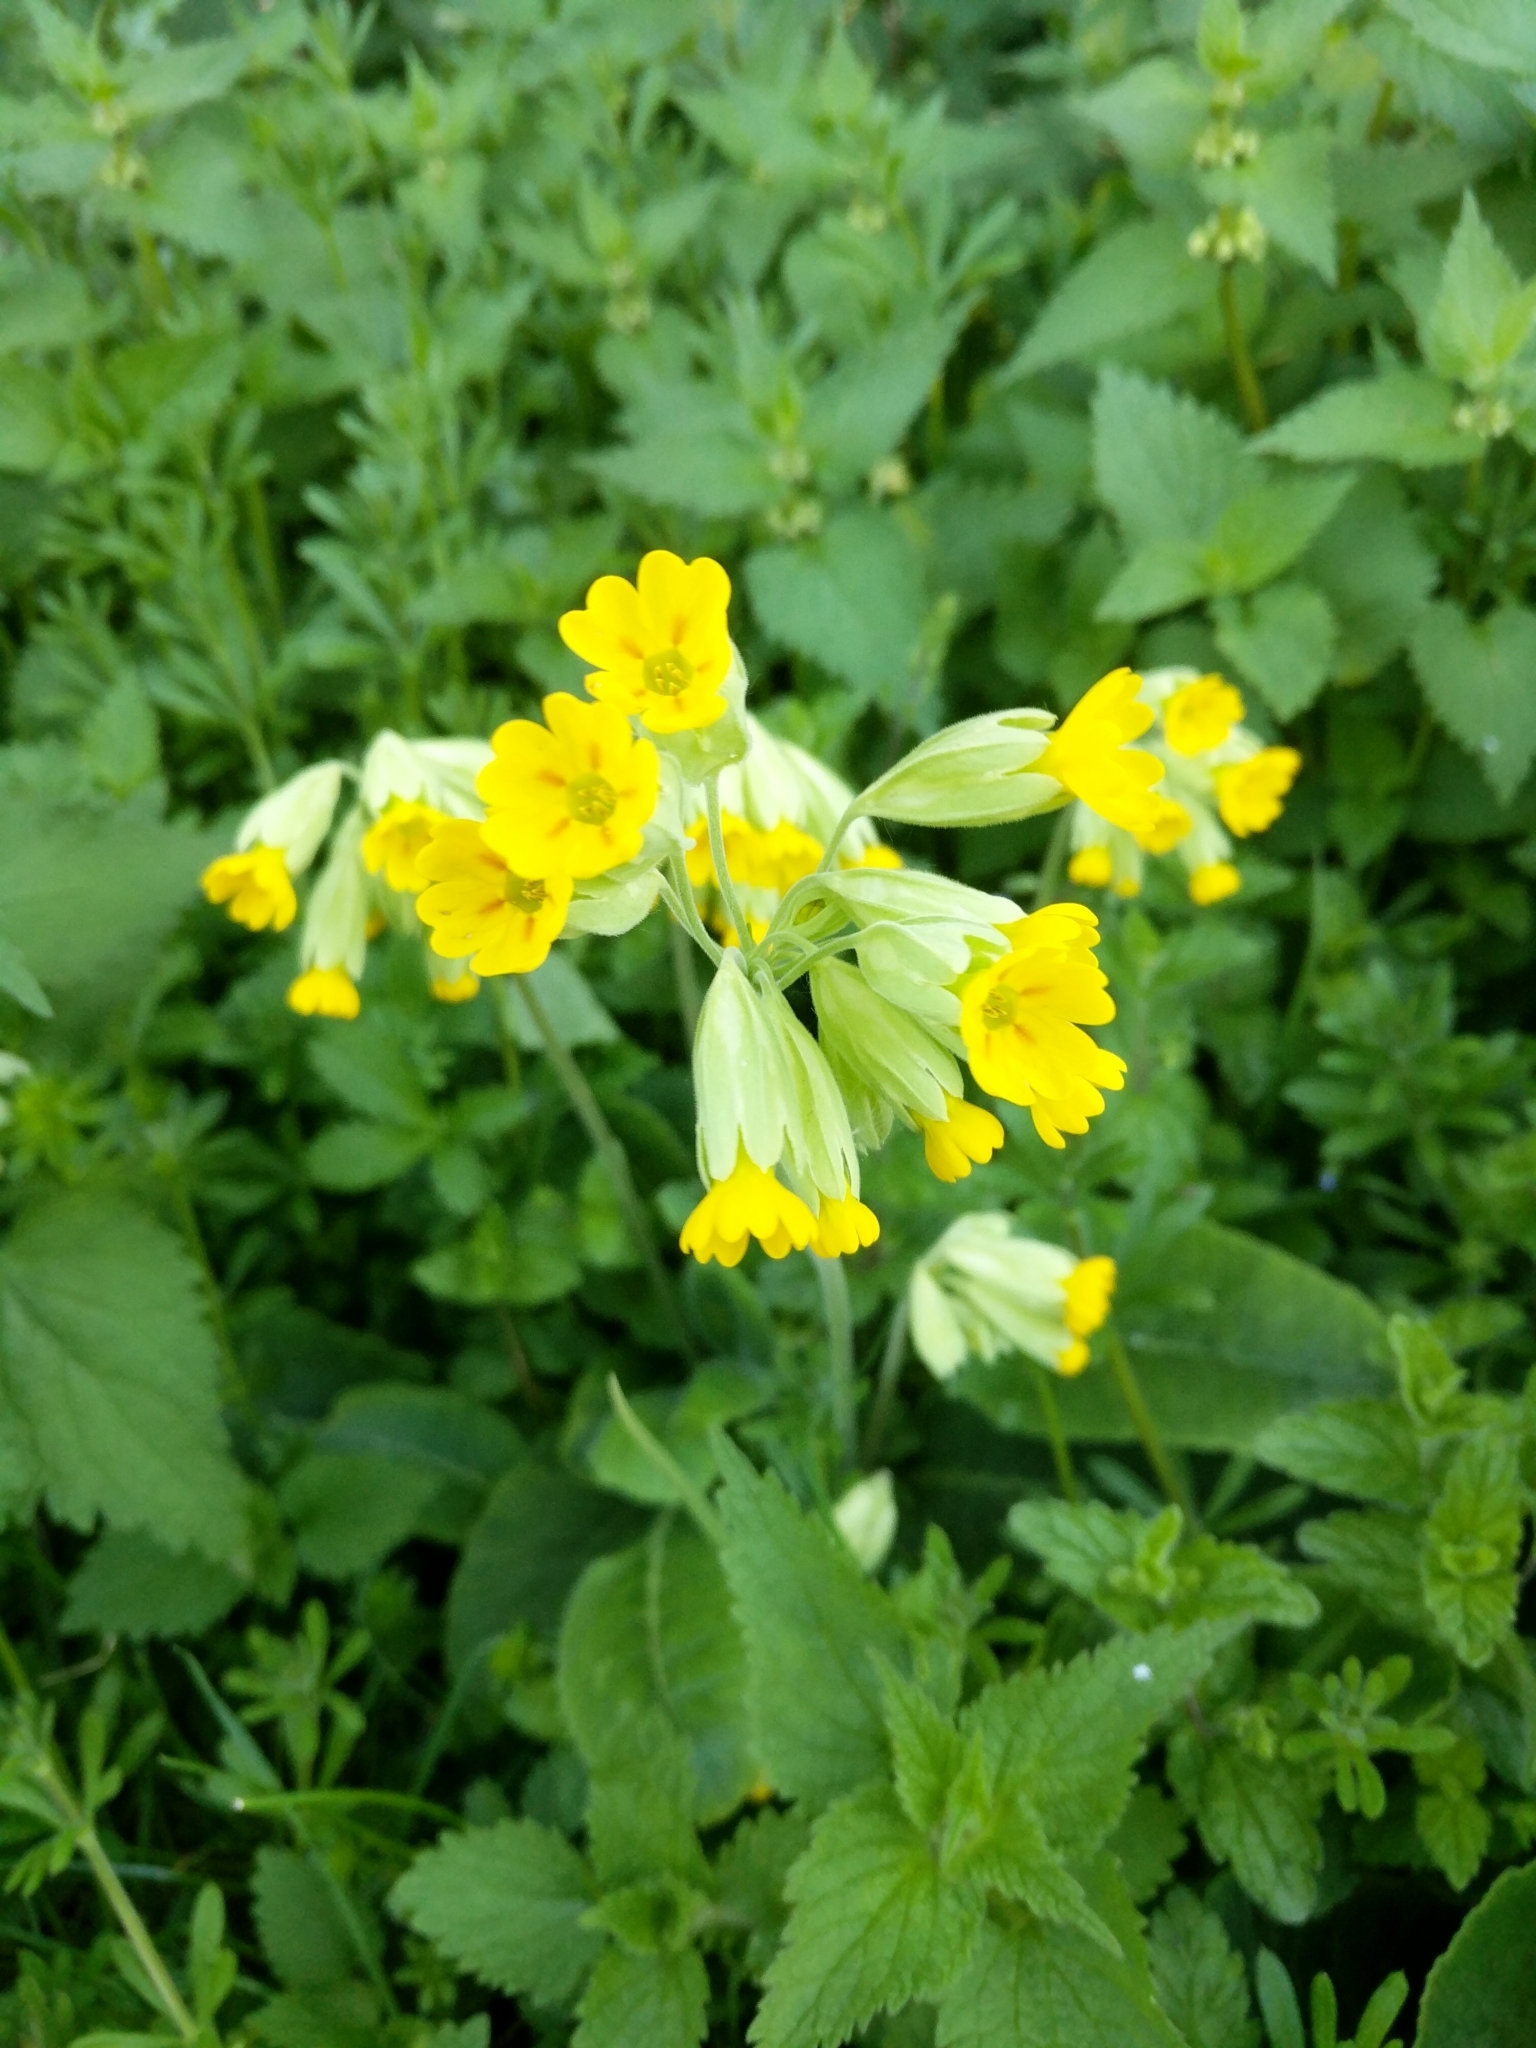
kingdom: Plantae
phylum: Tracheophyta
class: Magnoliopsida
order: Ericales
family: Primulaceae
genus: Primula
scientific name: Primula veris
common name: Cowslip
